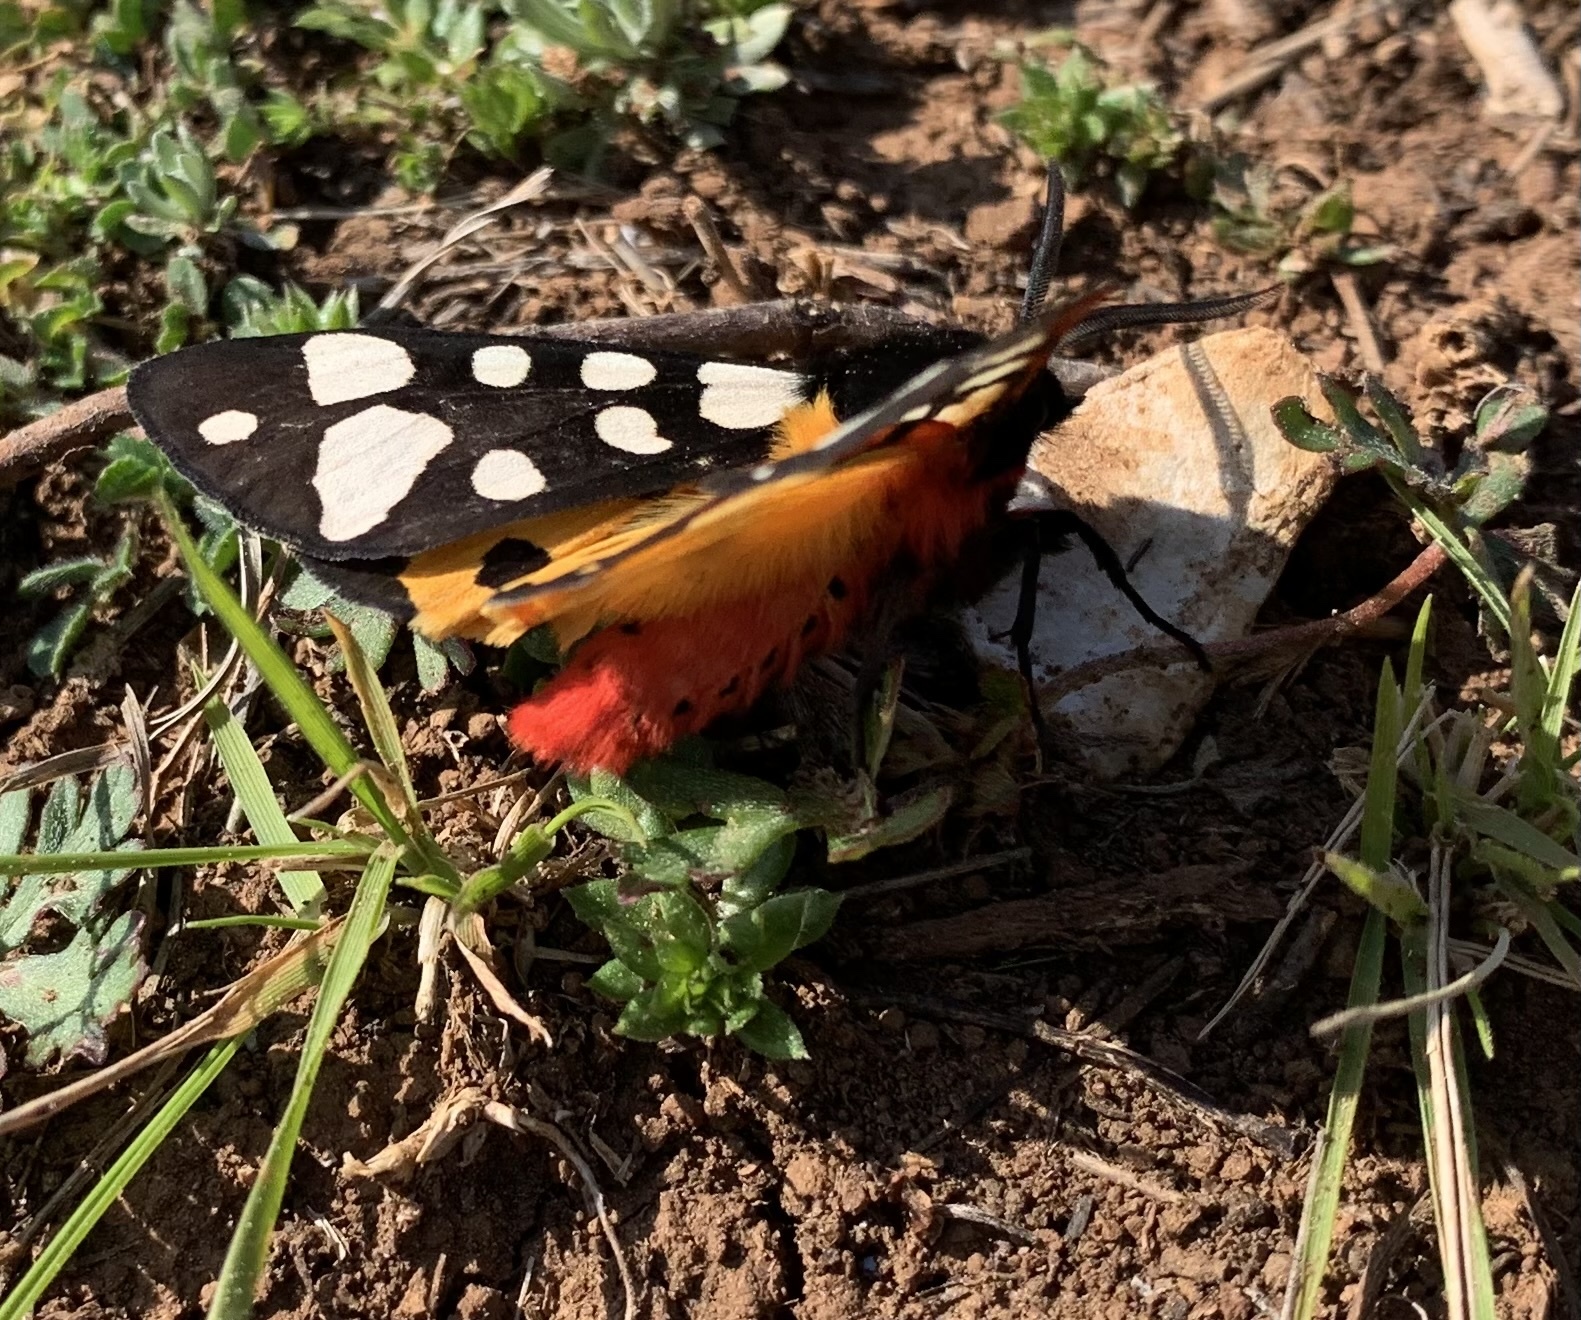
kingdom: Animalia
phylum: Arthropoda
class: Insecta
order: Lepidoptera
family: Erebidae
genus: Epicallia
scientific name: Epicallia villica
